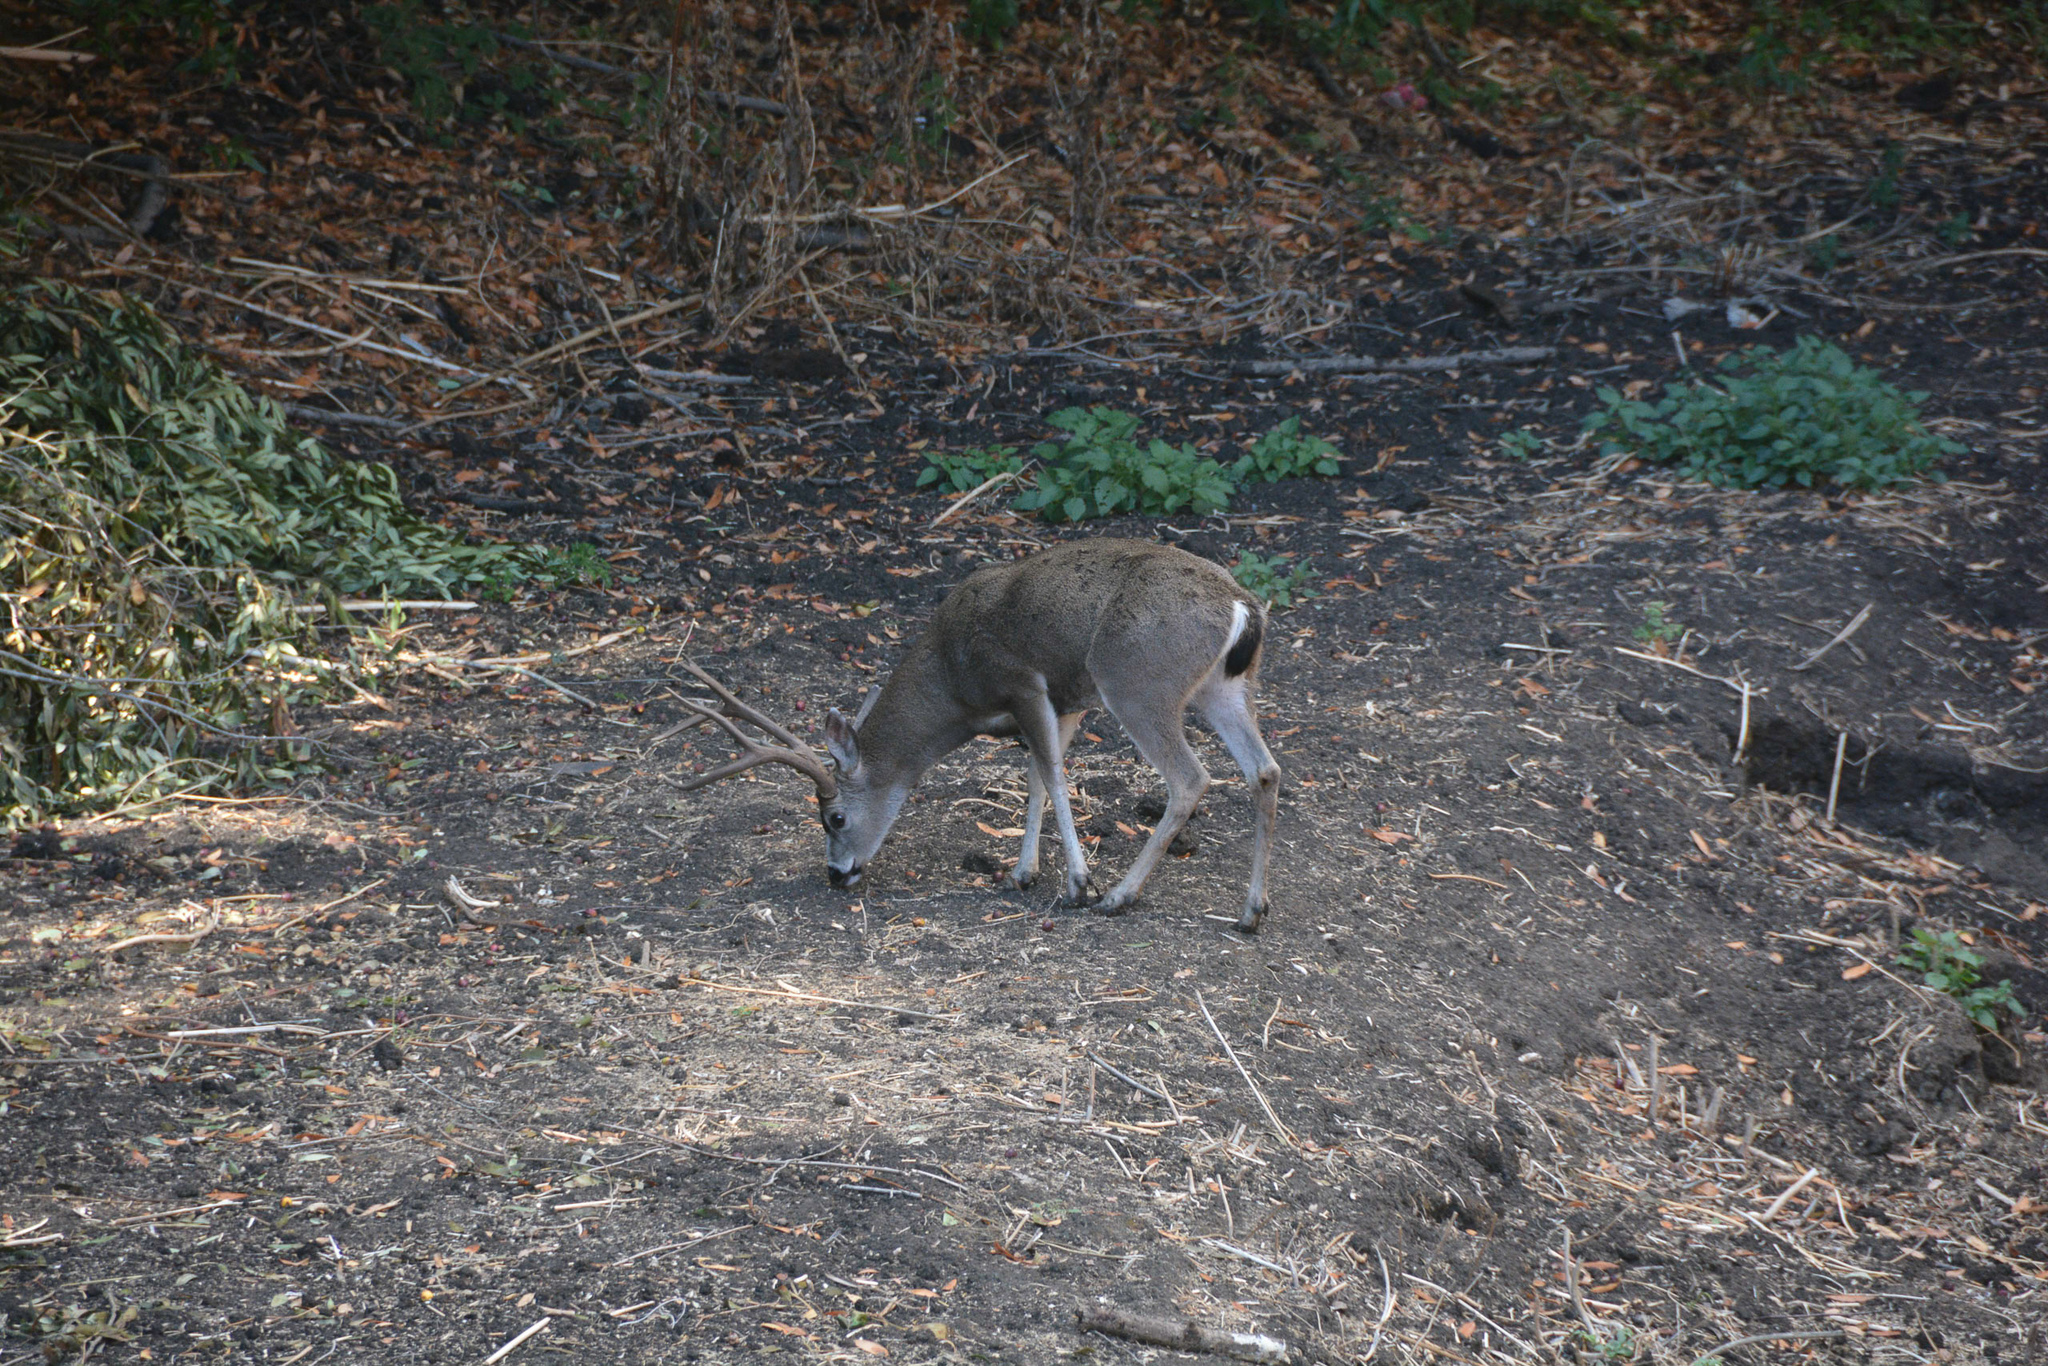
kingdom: Animalia
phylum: Chordata
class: Mammalia
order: Artiodactyla
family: Cervidae
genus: Odocoileus
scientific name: Odocoileus hemionus
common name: Mule deer
